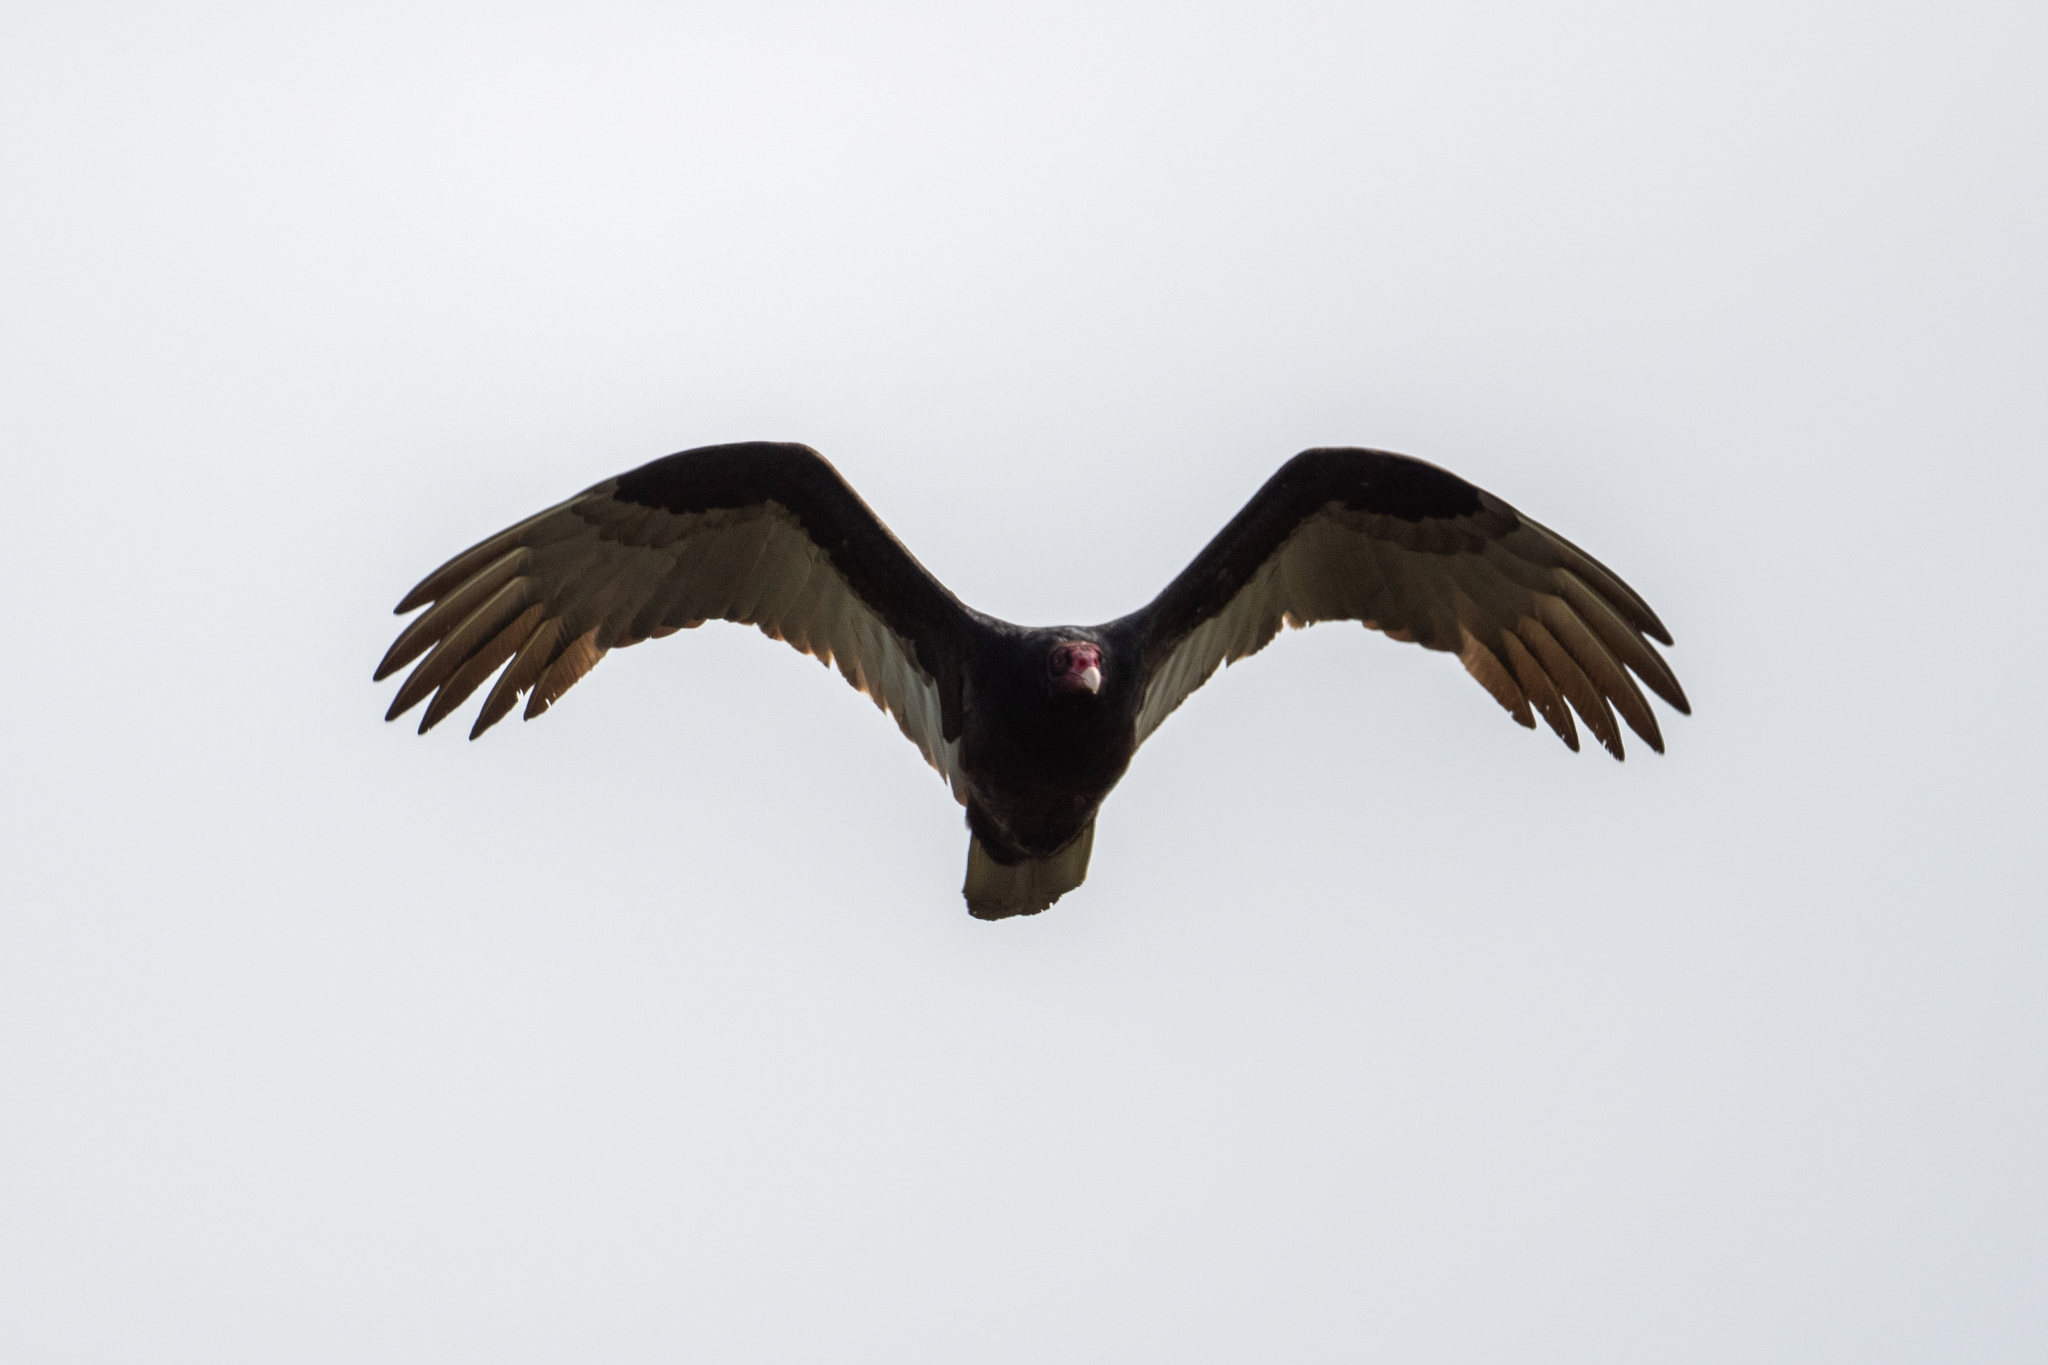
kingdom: Animalia
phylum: Chordata
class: Aves
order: Accipitriformes
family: Cathartidae
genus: Cathartes
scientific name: Cathartes aura
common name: Turkey vulture
